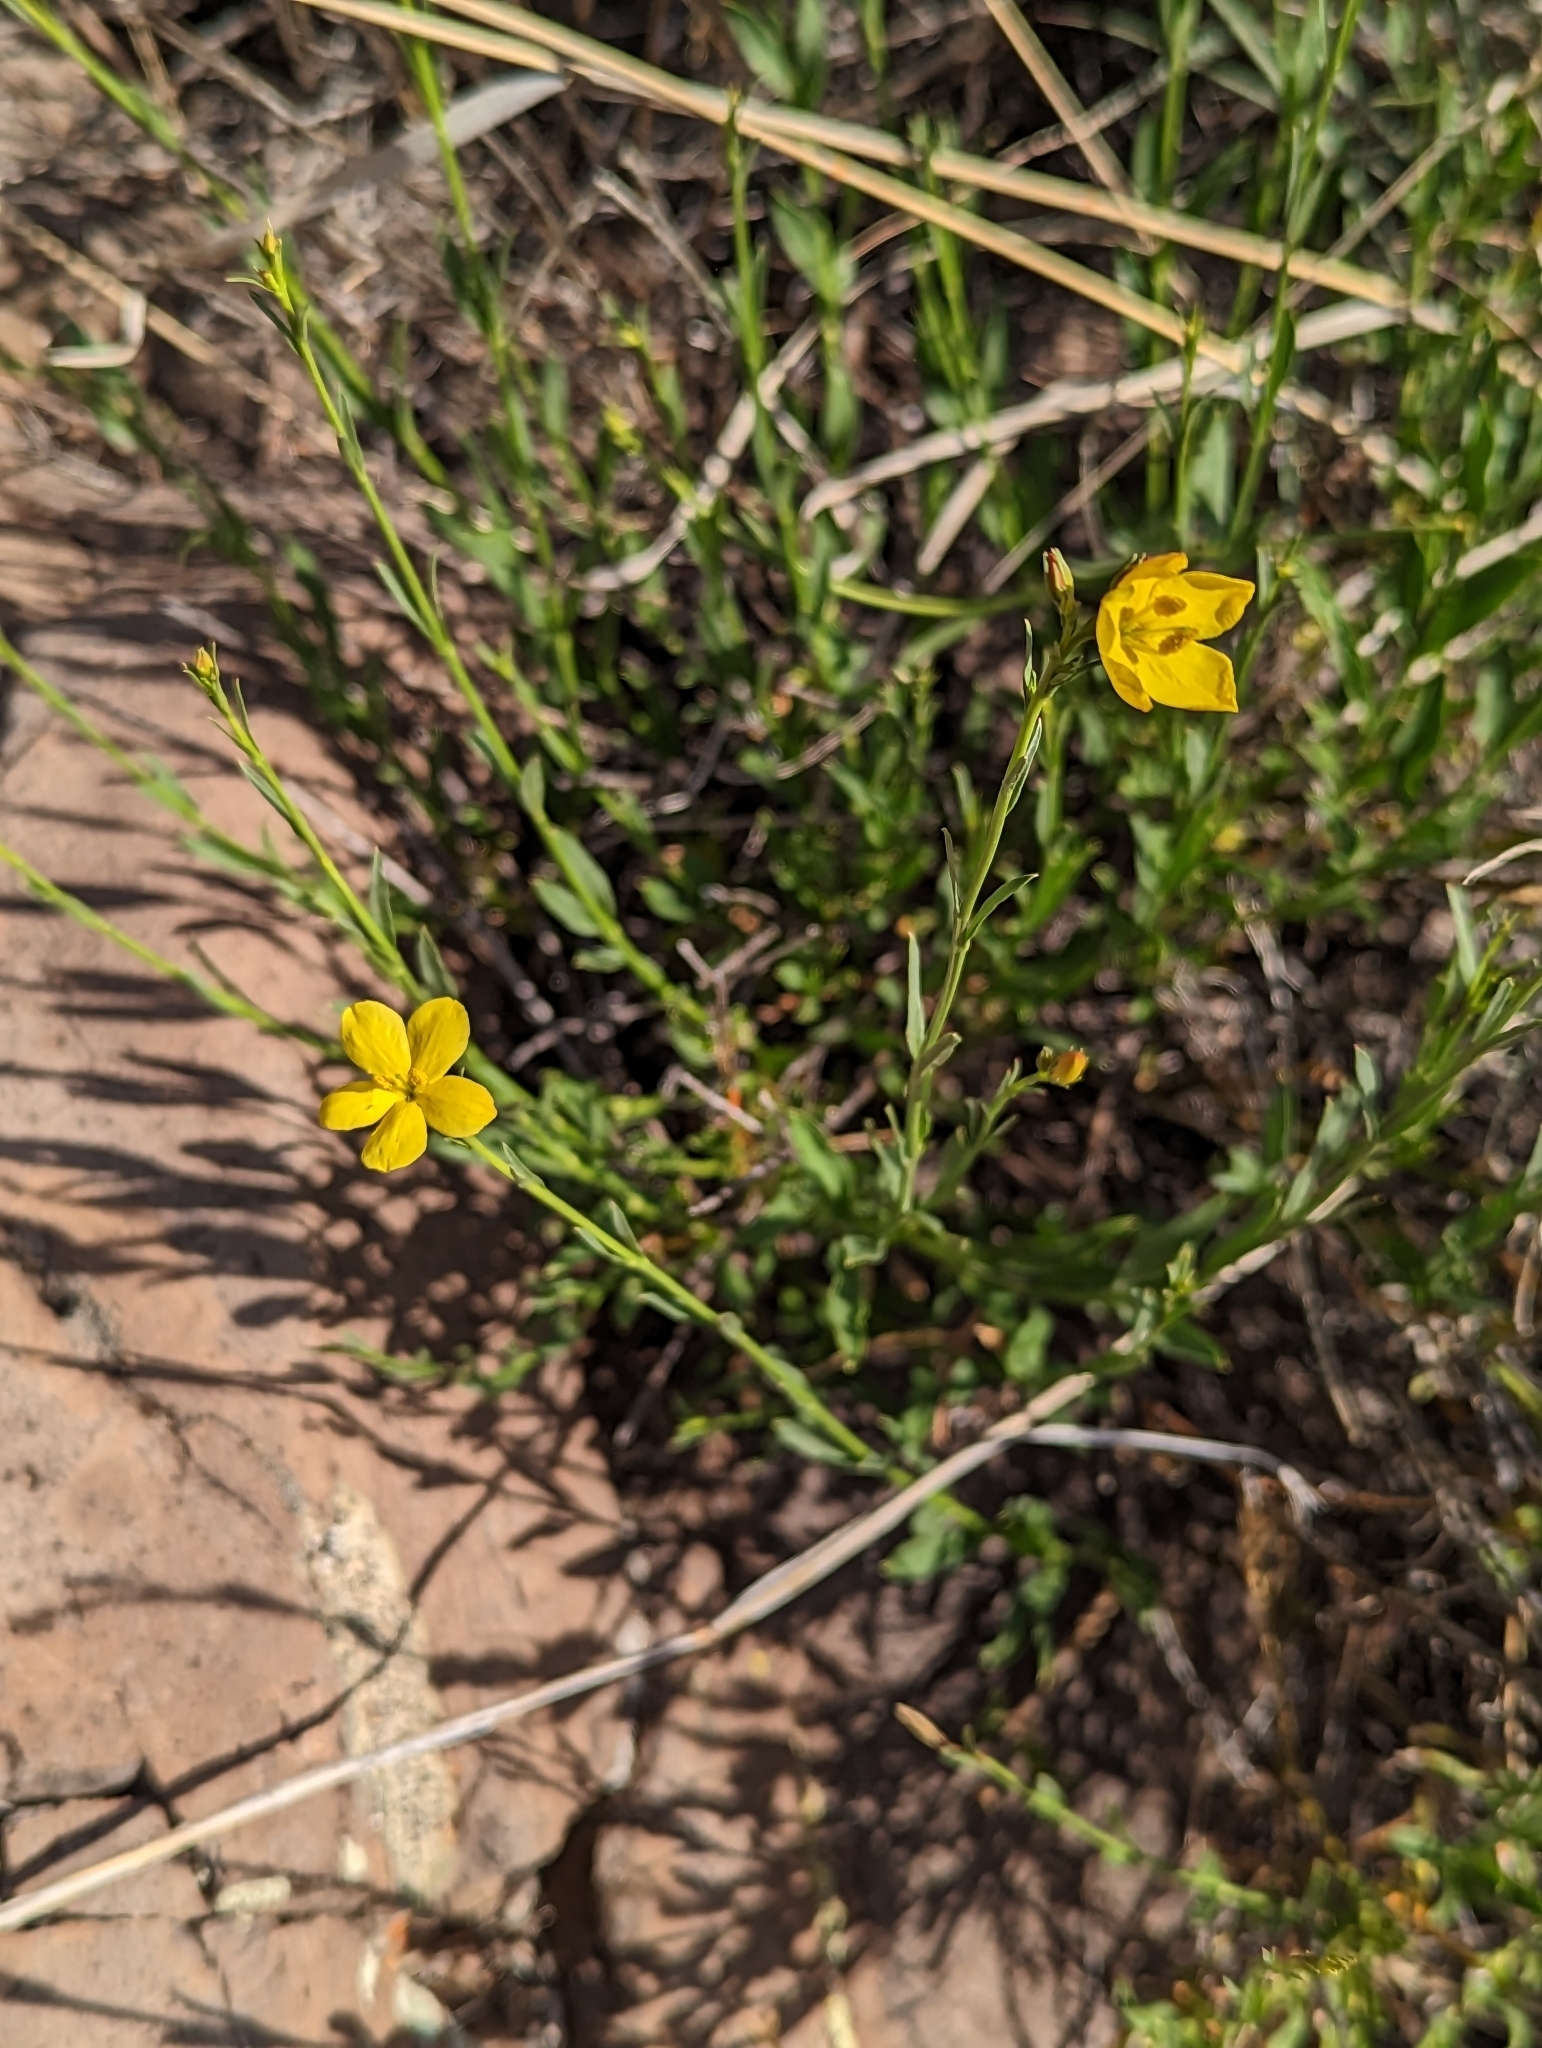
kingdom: Plantae
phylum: Tracheophyta
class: Magnoliopsida
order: Lamiales
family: Oleaceae
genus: Menodora
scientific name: Menodora scabra
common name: Rough menodora
